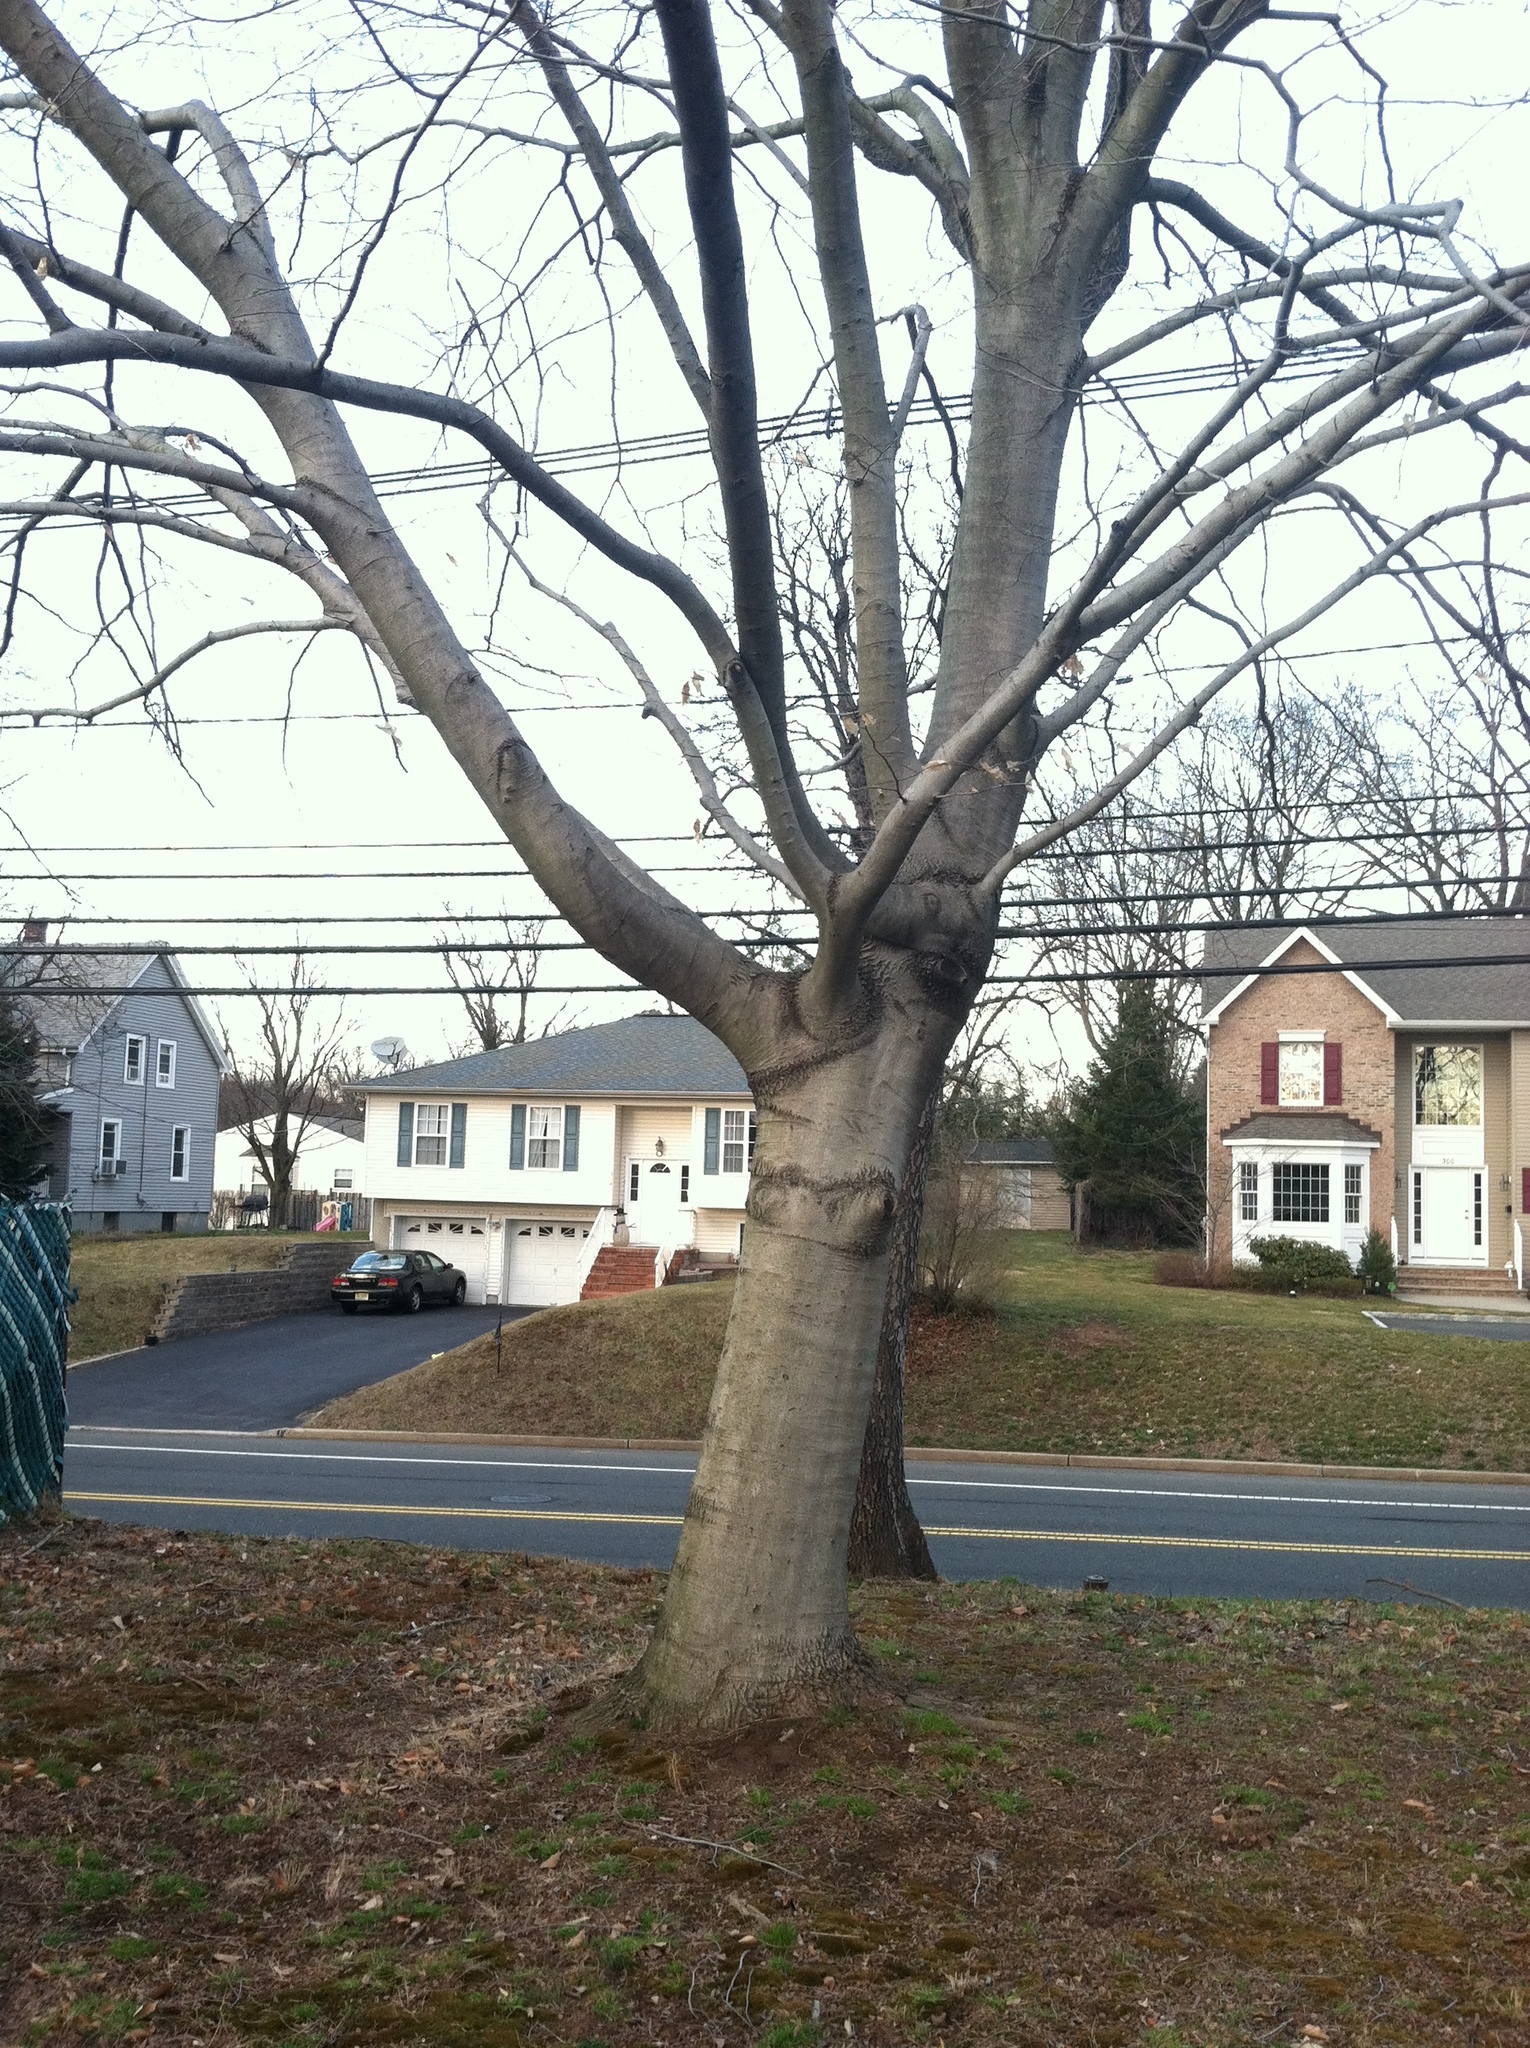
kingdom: Plantae
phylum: Tracheophyta
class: Magnoliopsida
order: Fagales
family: Fagaceae
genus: Fagus
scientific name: Fagus grandifolia
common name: American beech
